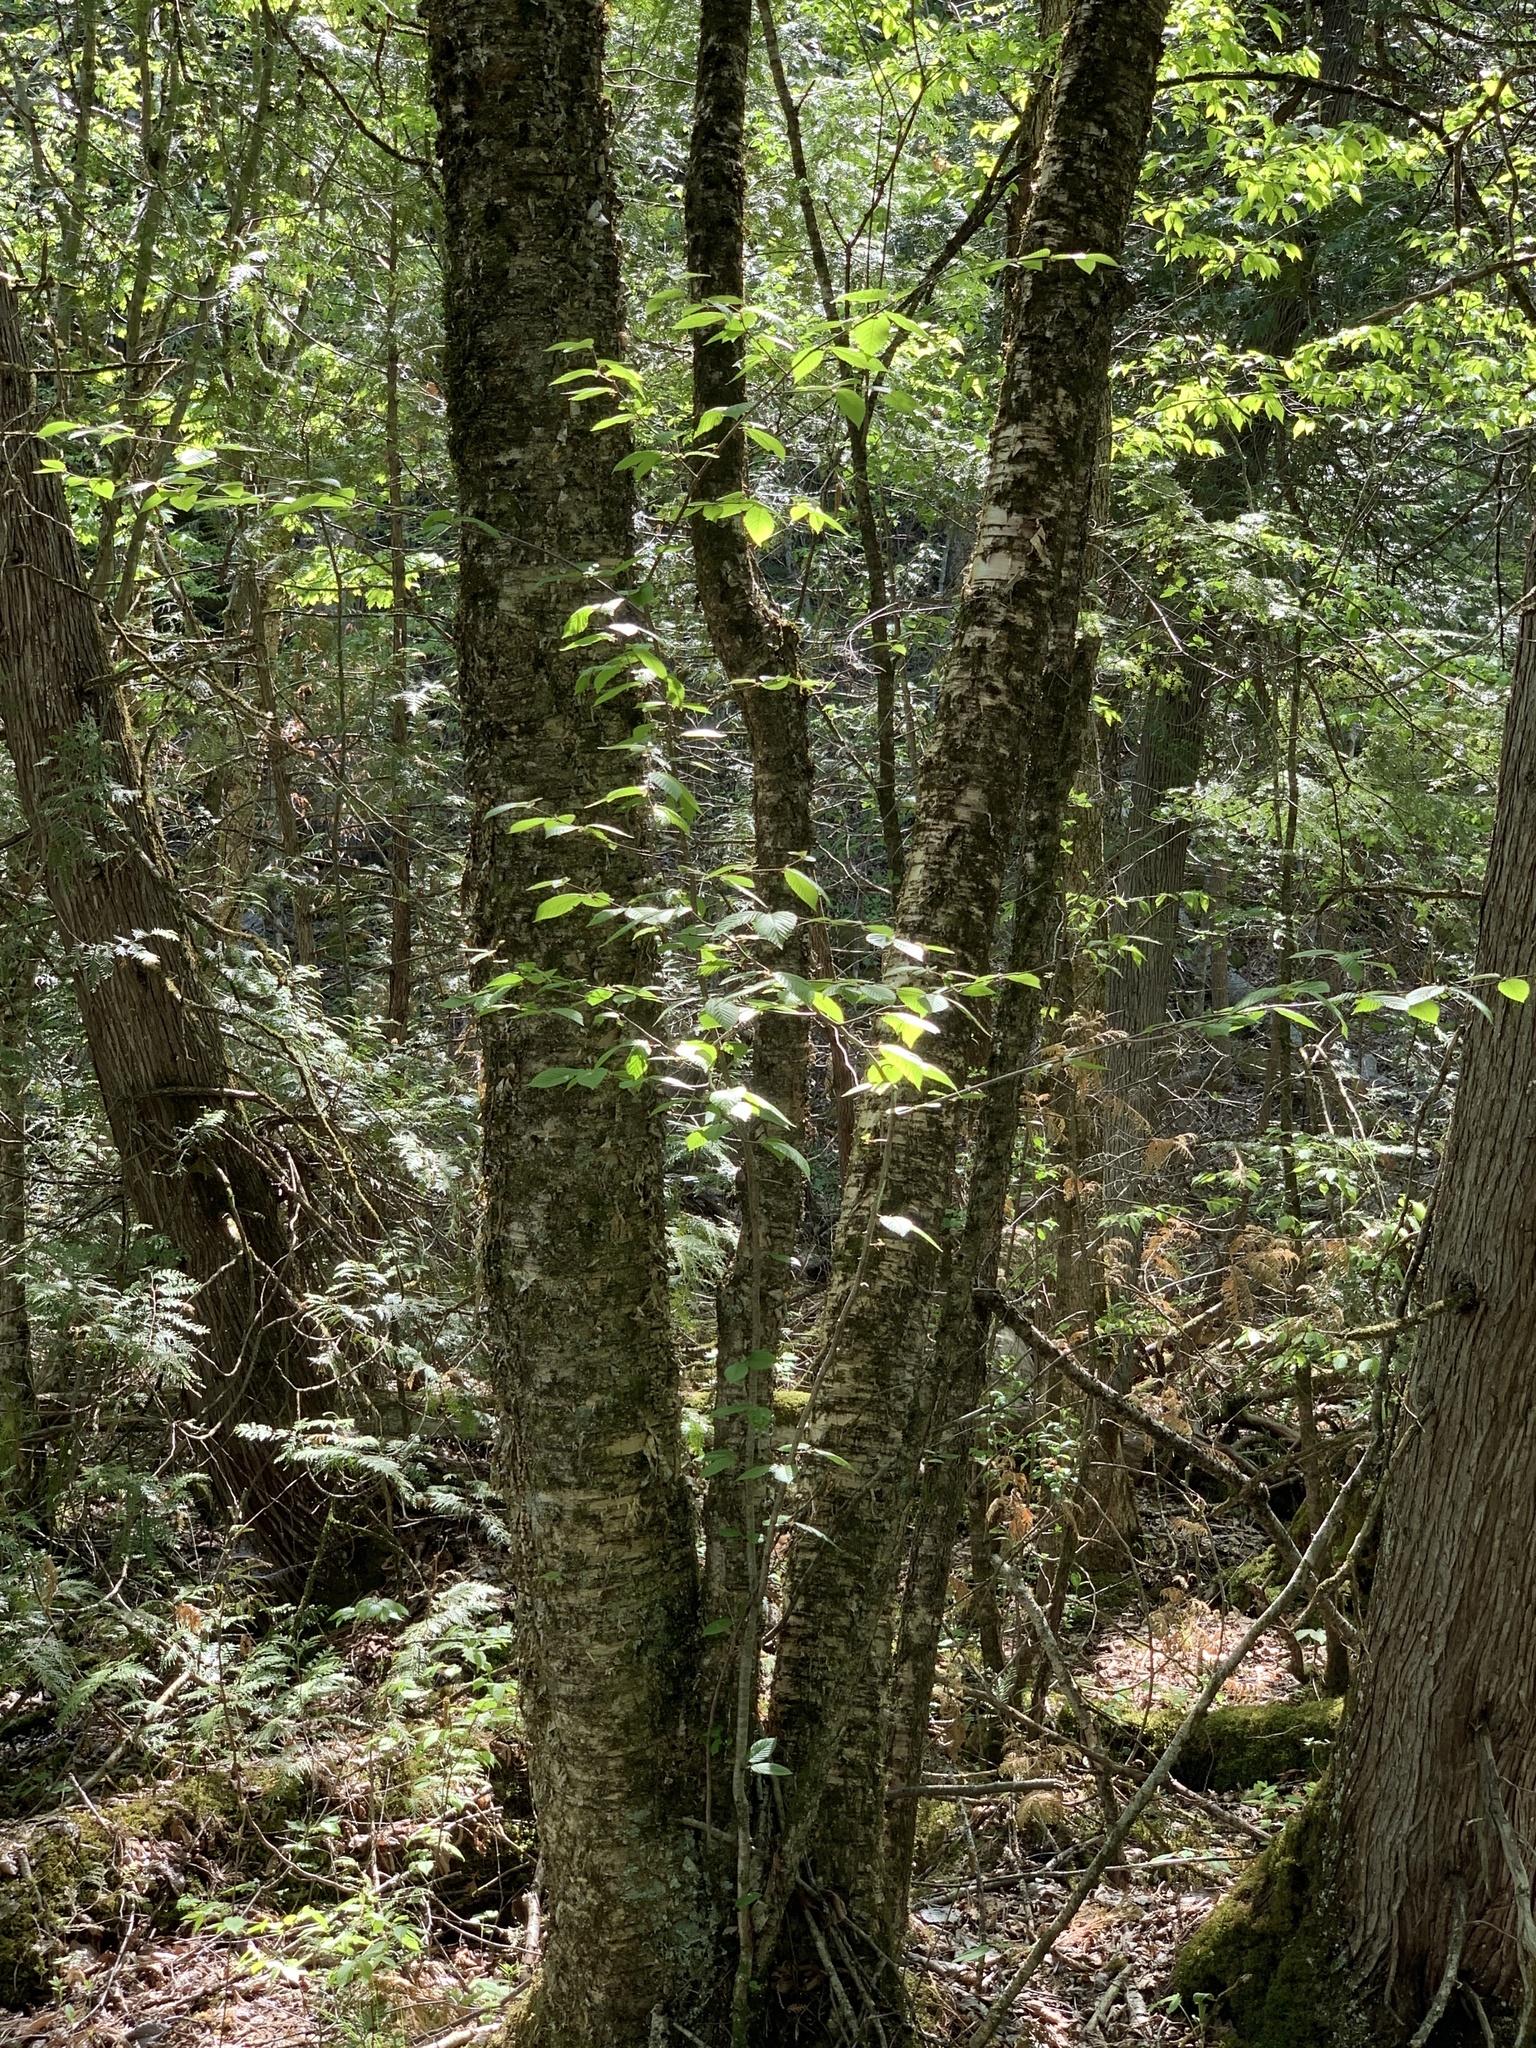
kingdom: Plantae
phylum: Tracheophyta
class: Magnoliopsida
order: Fagales
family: Betulaceae
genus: Betula
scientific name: Betula alleghaniensis
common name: Yellow birch
